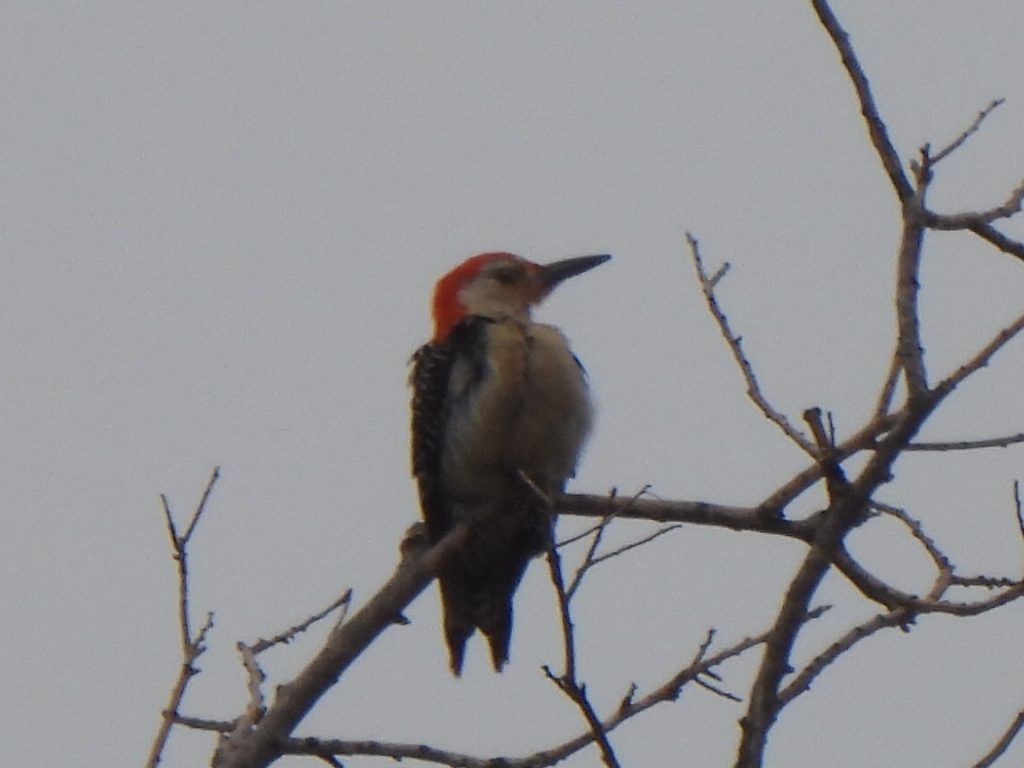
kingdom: Animalia
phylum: Chordata
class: Aves
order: Piciformes
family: Picidae
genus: Melanerpes
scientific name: Melanerpes carolinus
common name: Red-bellied woodpecker
